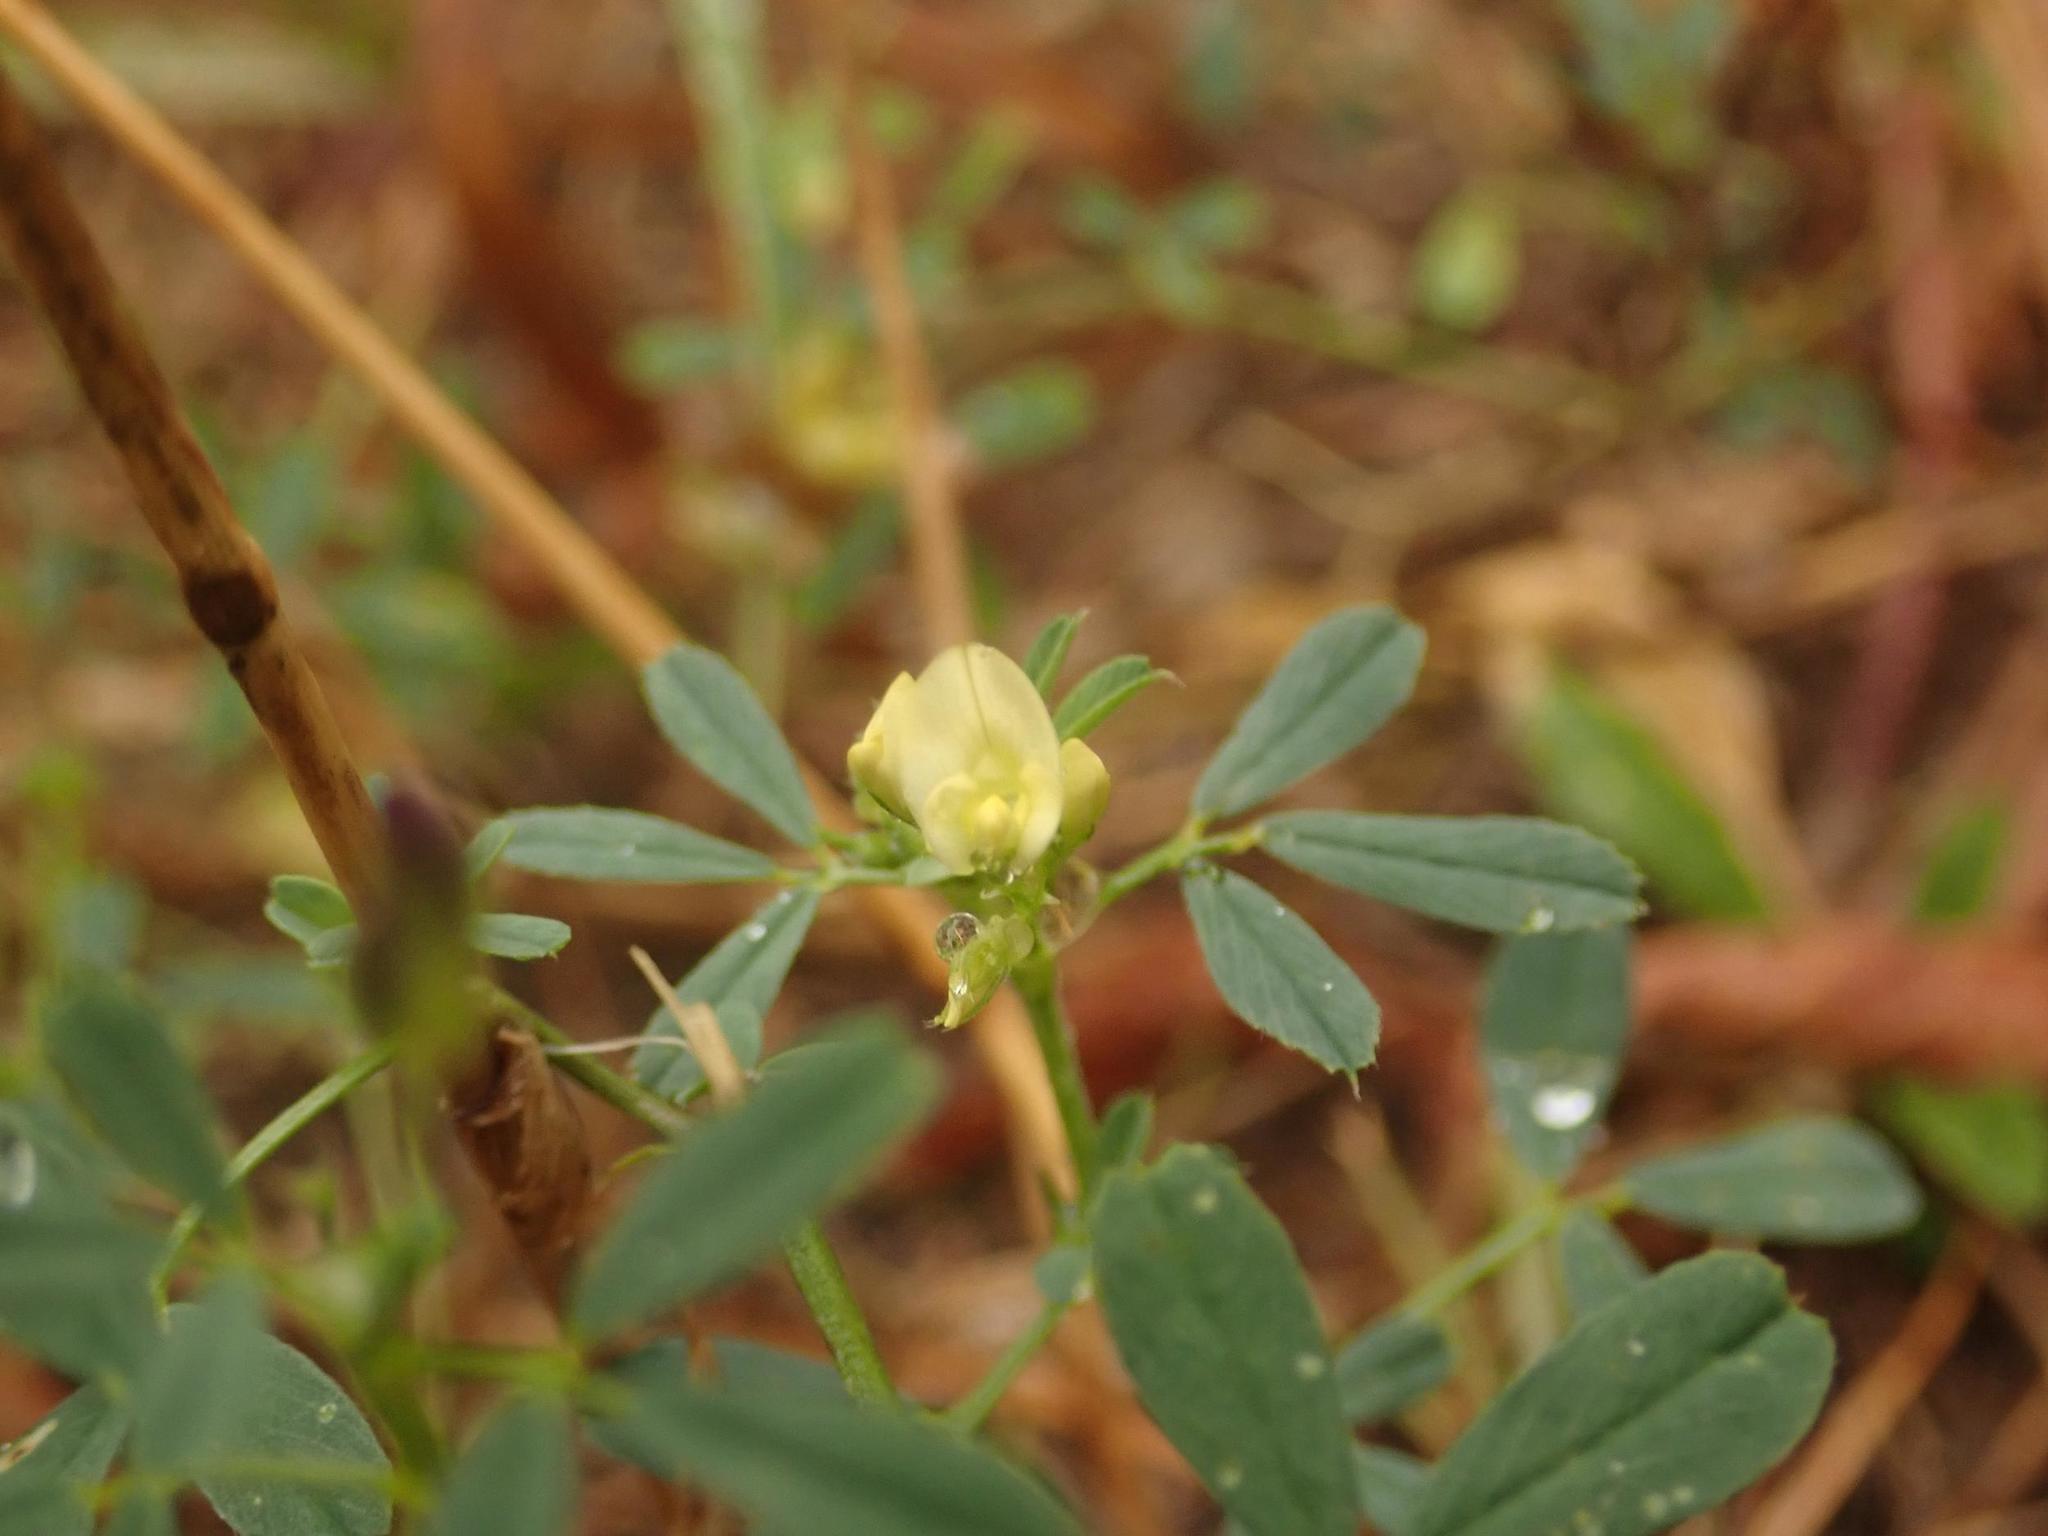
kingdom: Plantae
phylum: Tracheophyta
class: Magnoliopsida
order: Fabales
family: Fabaceae
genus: Medicago
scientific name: Medicago varia
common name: Sand lucerne
